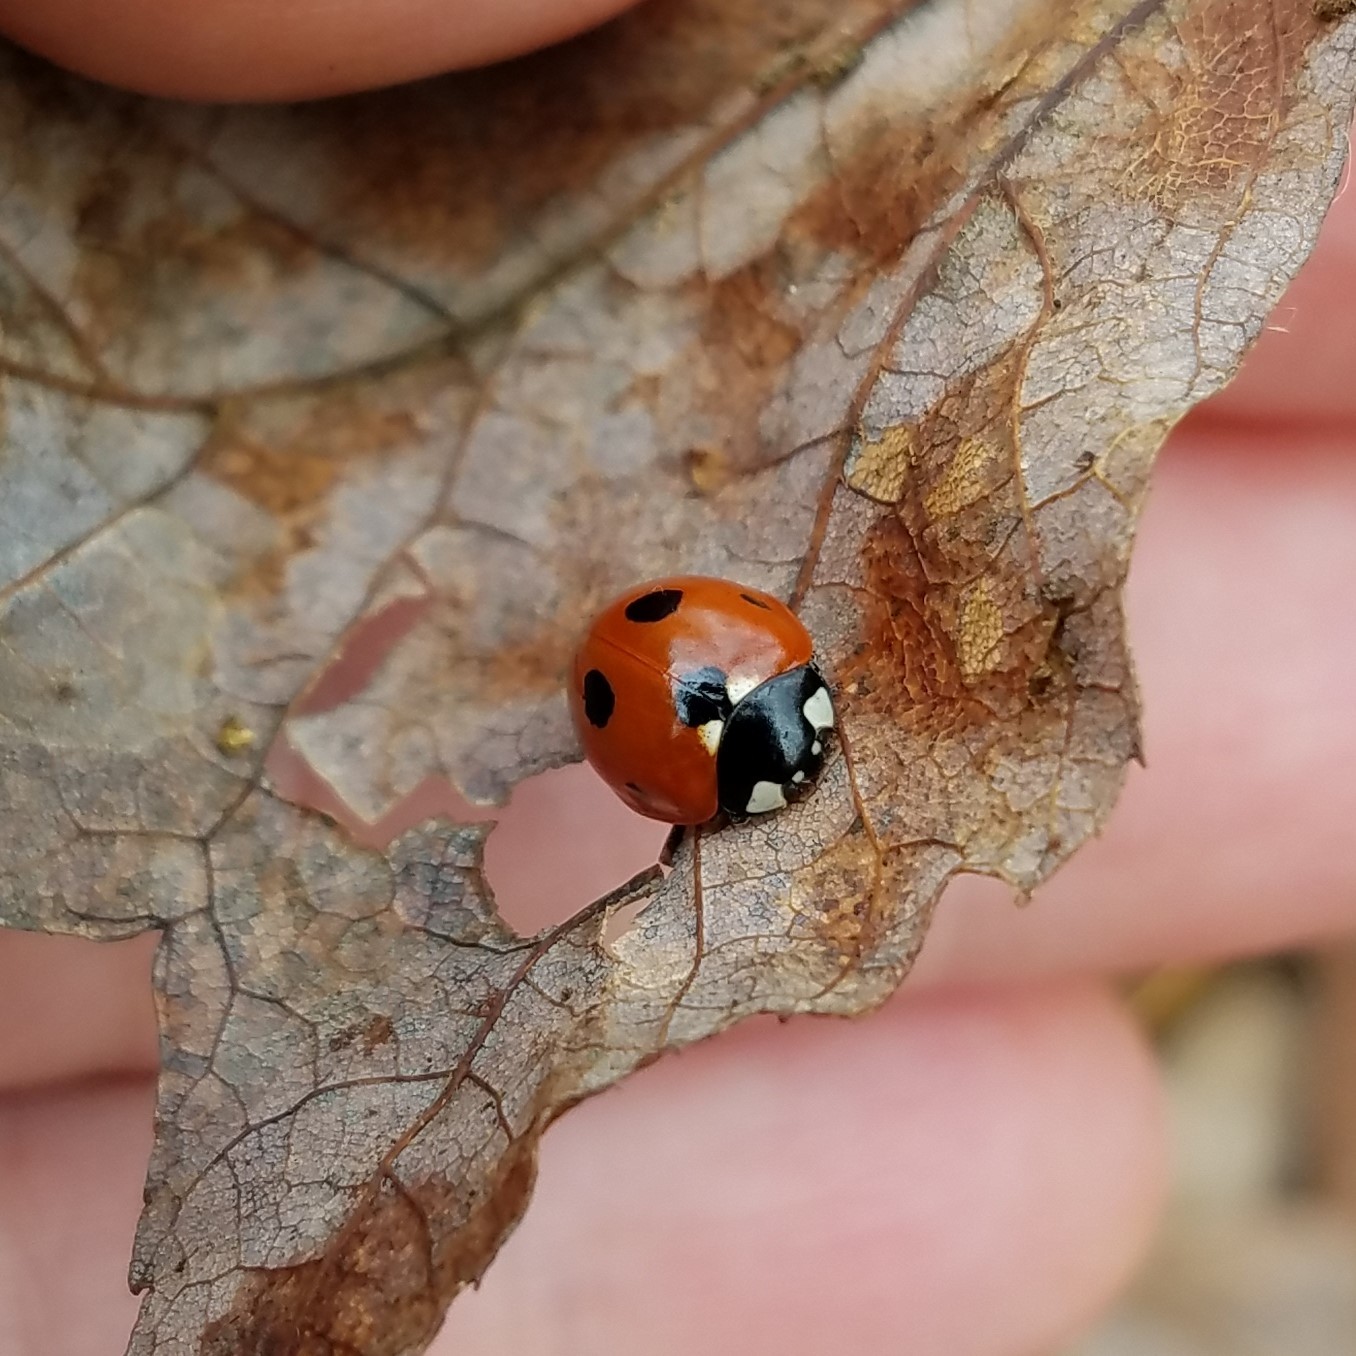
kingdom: Animalia
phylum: Arthropoda
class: Insecta
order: Coleoptera
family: Coccinellidae
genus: Coccinella
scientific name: Coccinella septempunctata
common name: Sevenspotted lady beetle
